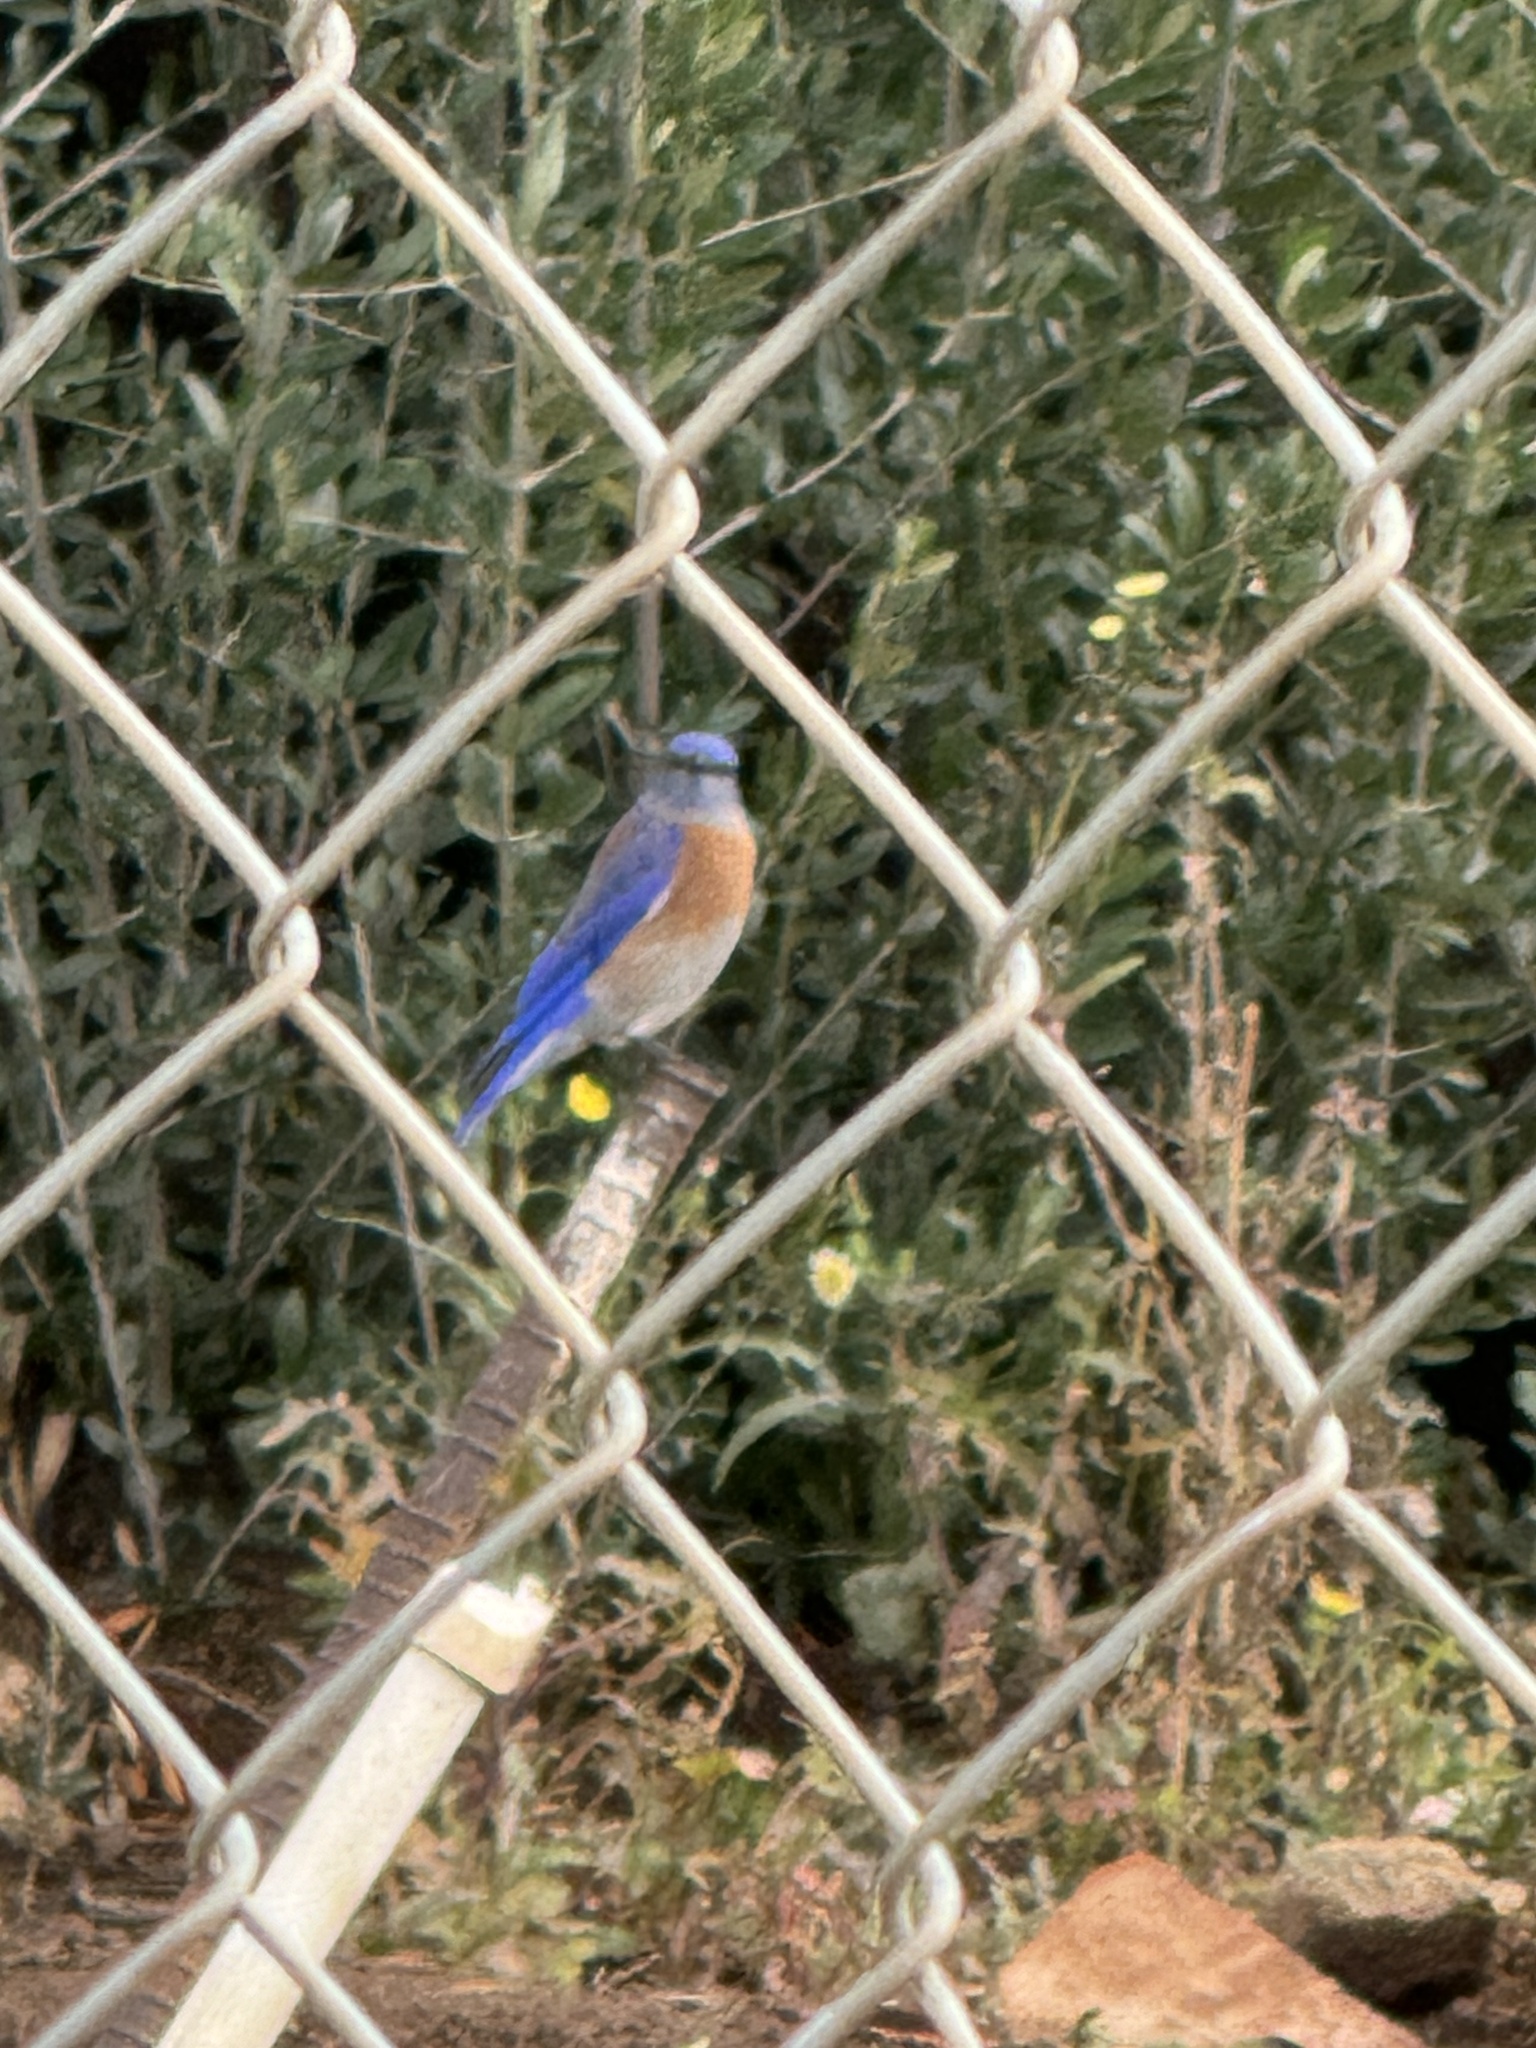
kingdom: Animalia
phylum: Chordata
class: Aves
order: Passeriformes
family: Turdidae
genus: Sialia
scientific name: Sialia mexicana
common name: Western bluebird
